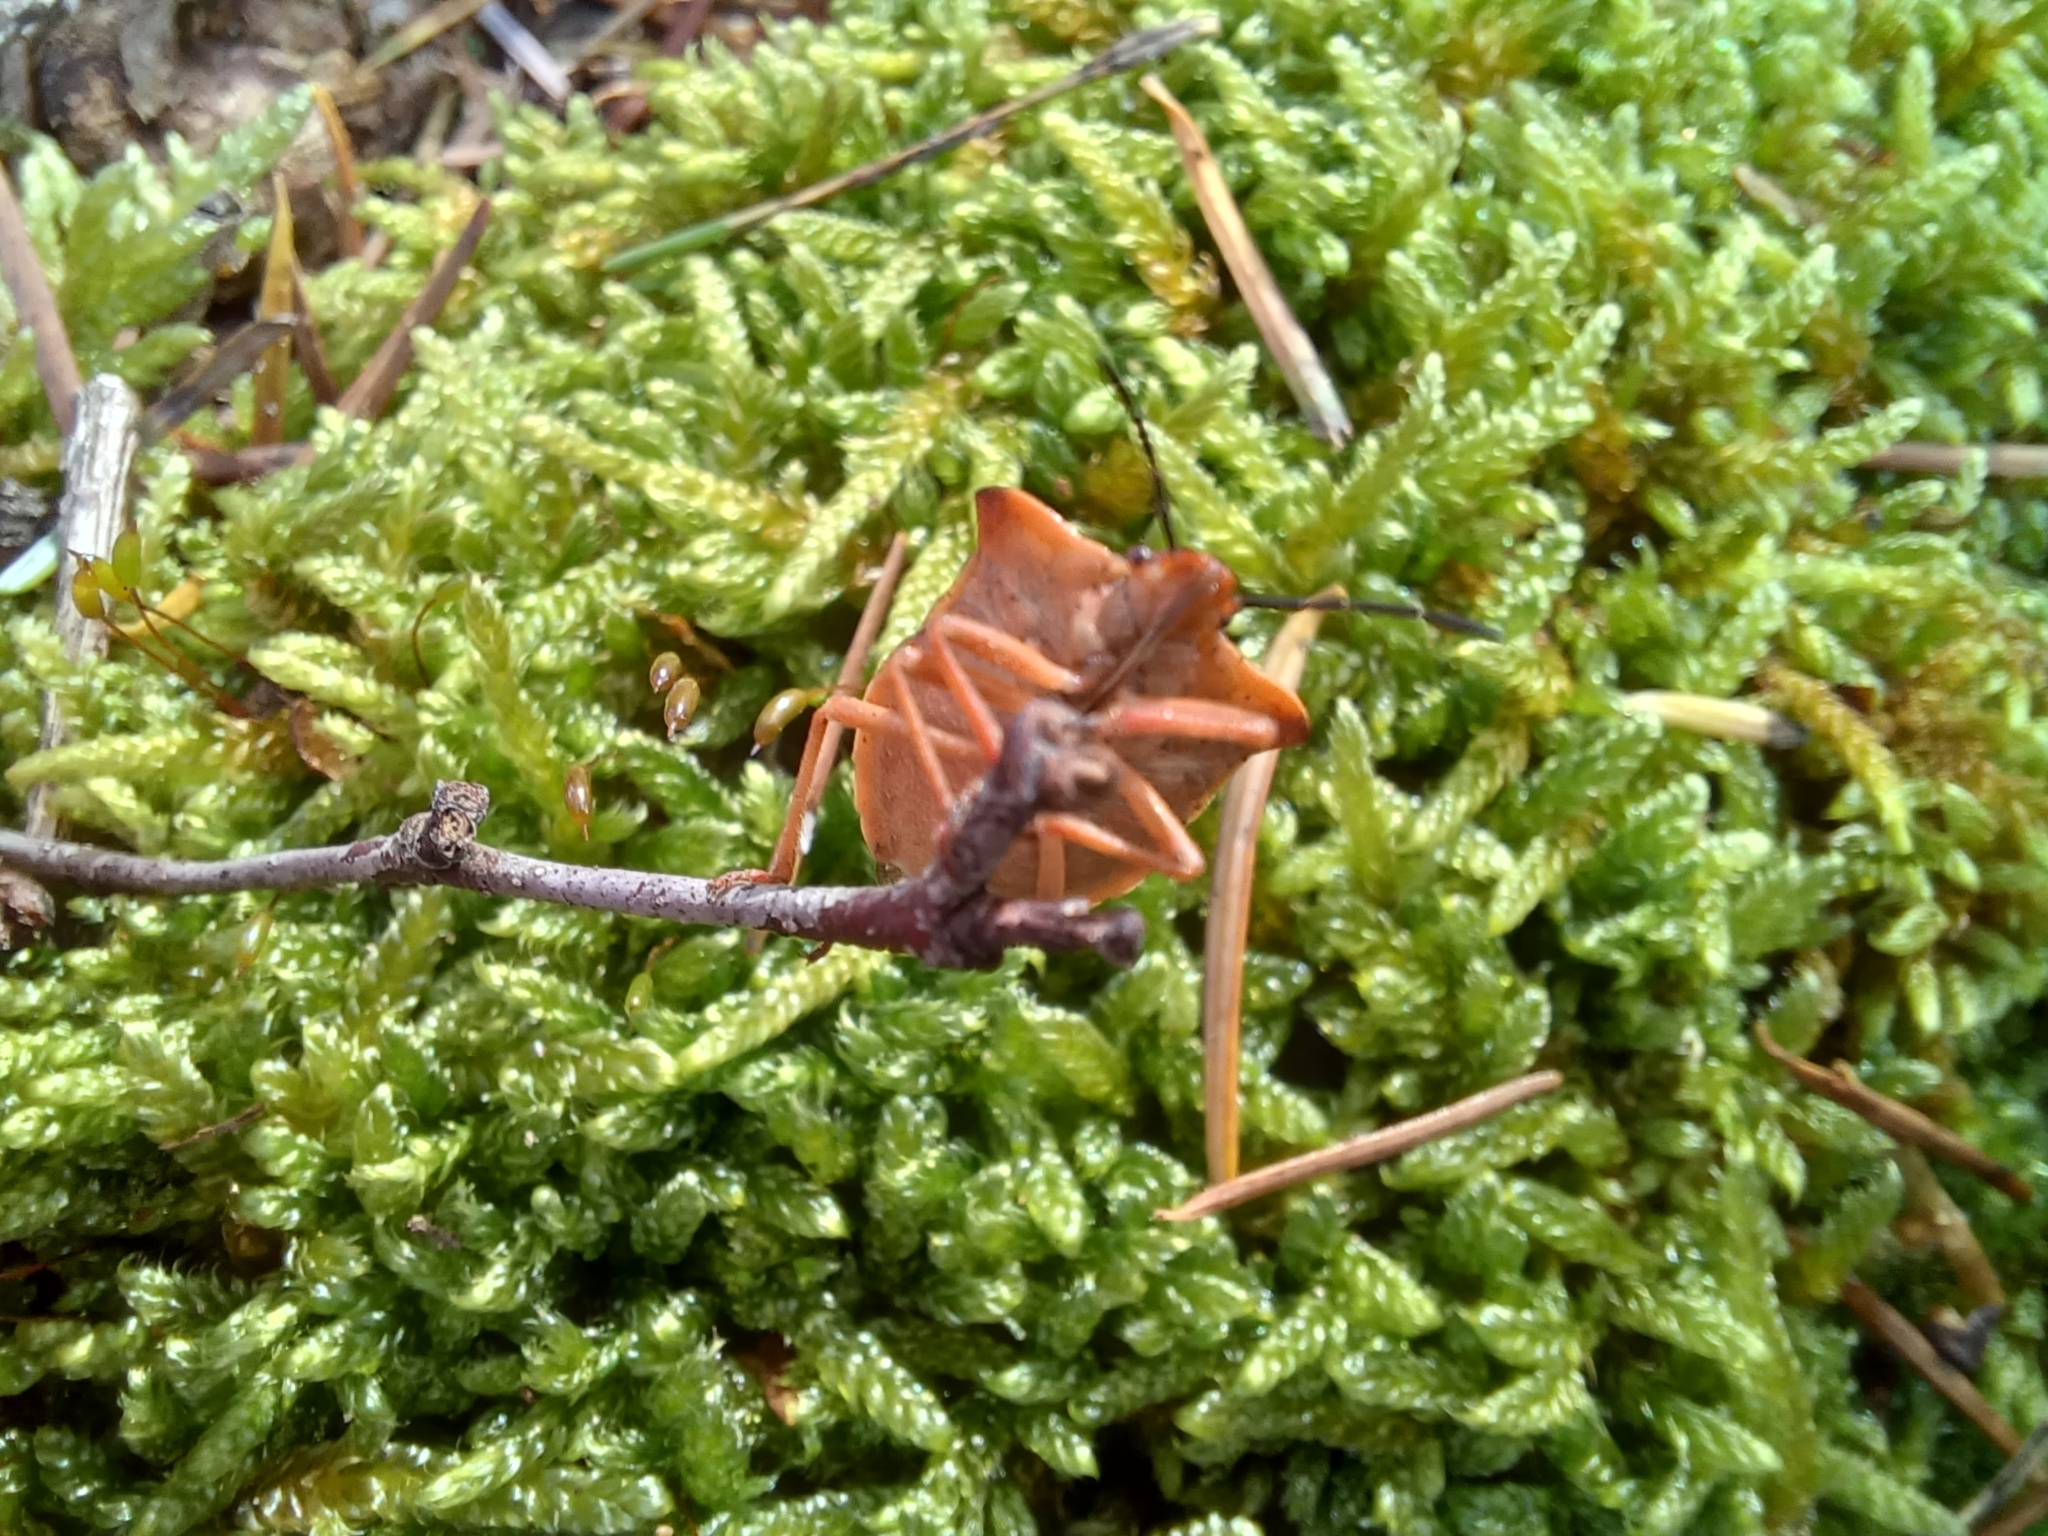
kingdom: Animalia
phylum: Arthropoda
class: Insecta
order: Hemiptera
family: Pentatomidae
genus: Carpocoris
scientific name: Carpocoris fuscispinus
